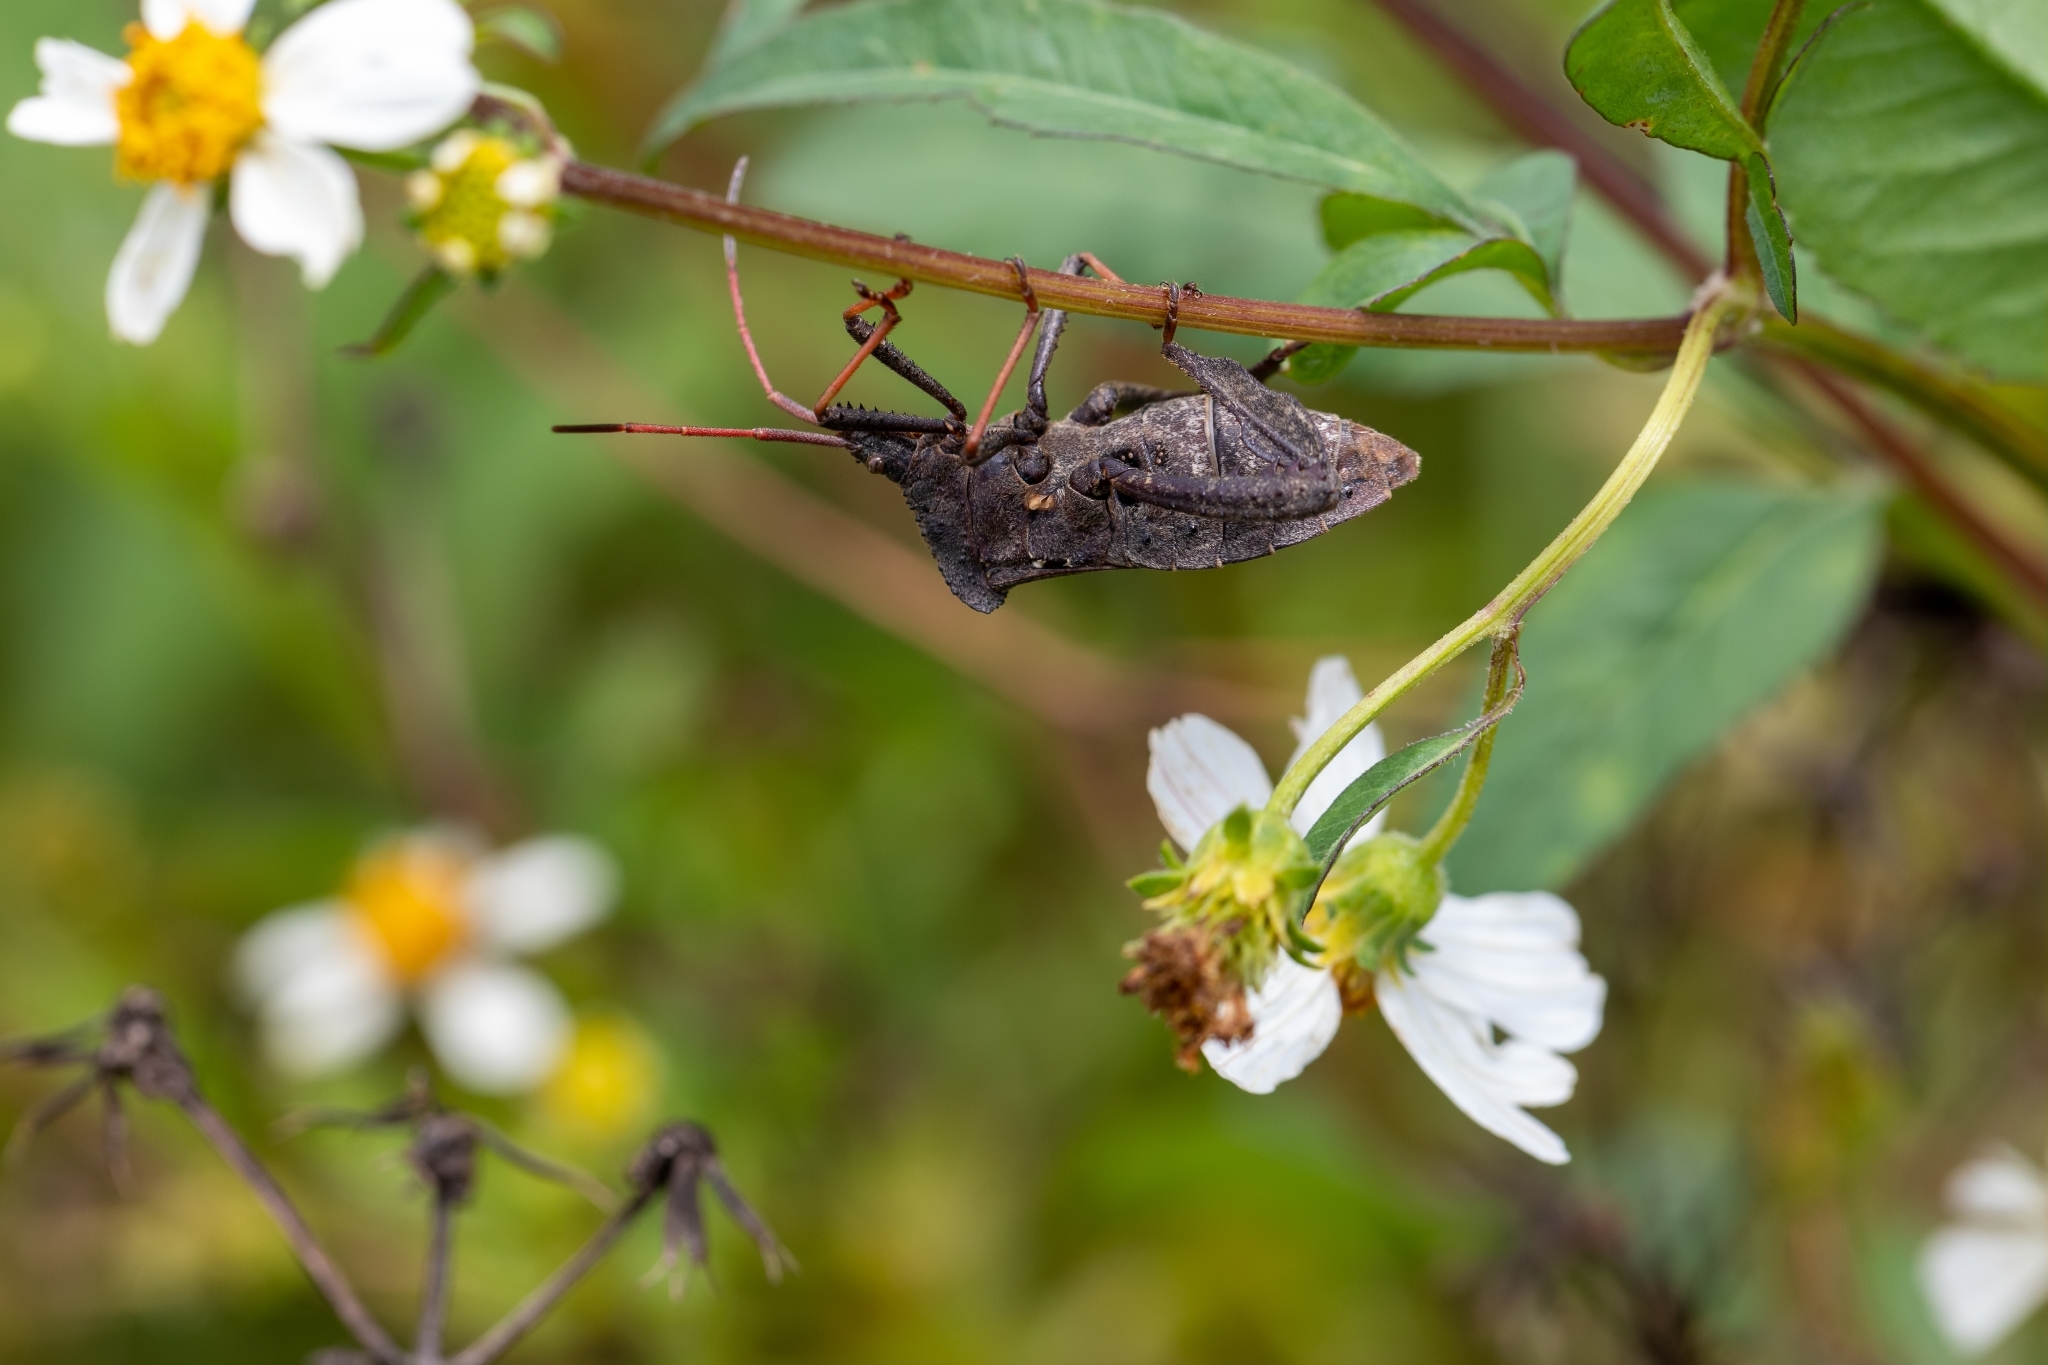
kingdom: Animalia
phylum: Arthropoda
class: Insecta
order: Hemiptera
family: Coreidae
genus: Acanthocephala
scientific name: Acanthocephala femorata
